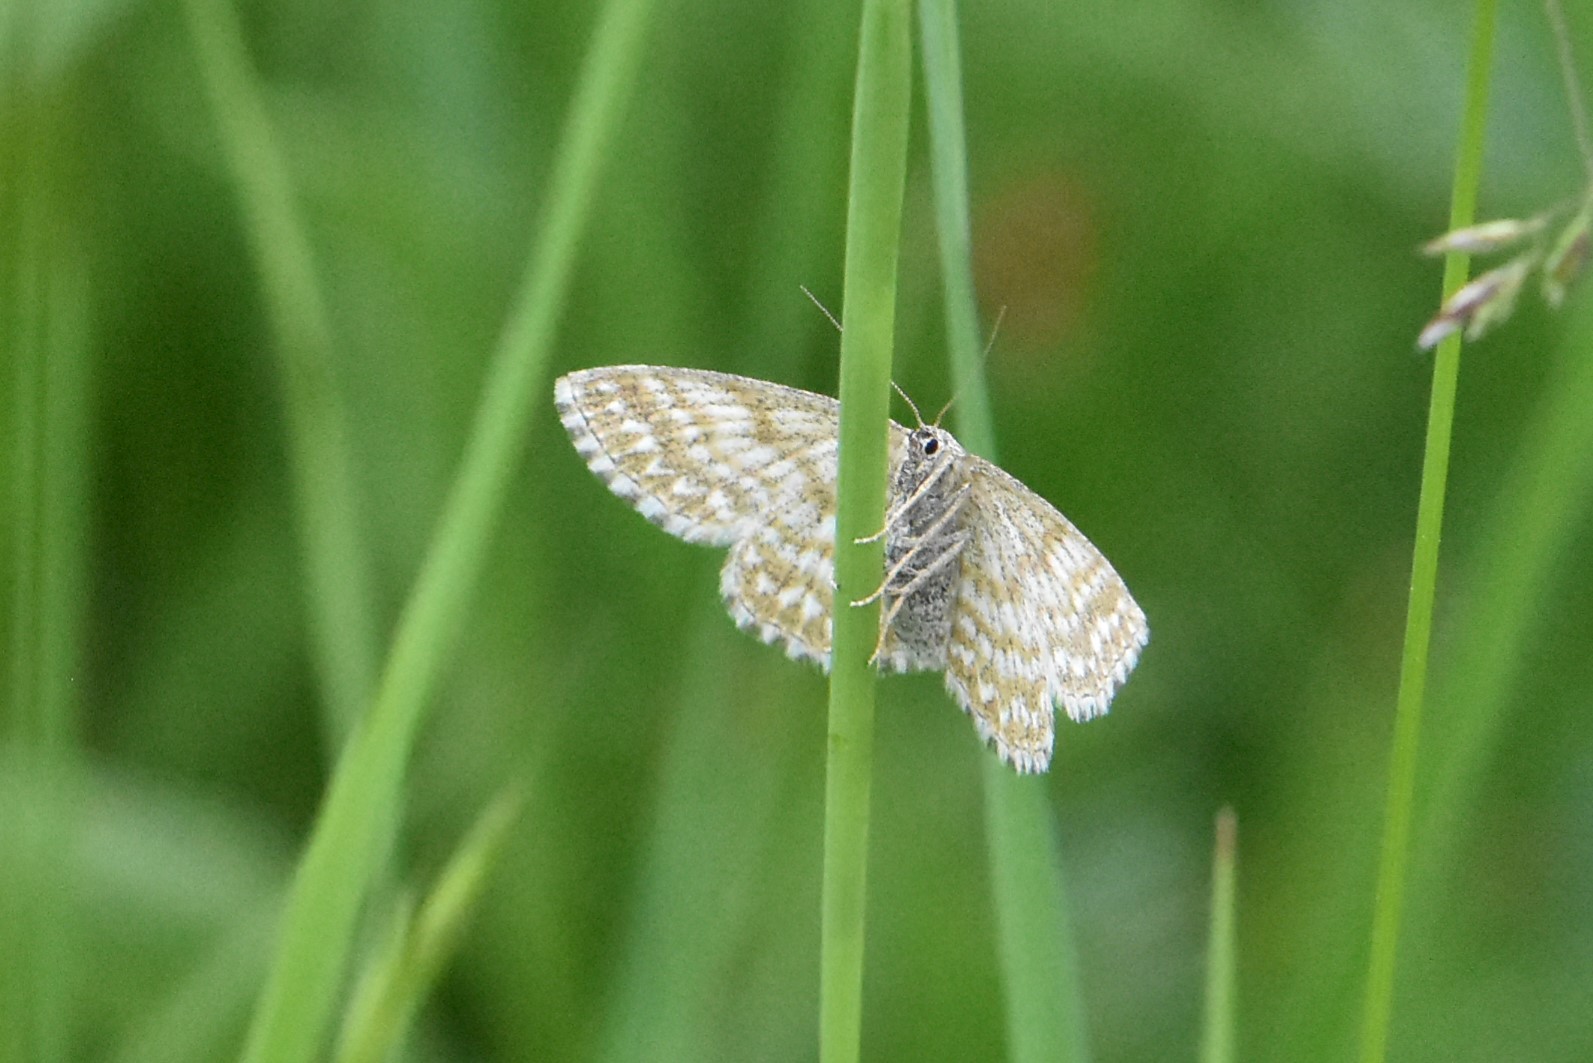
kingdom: Animalia
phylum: Arthropoda
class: Insecta
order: Lepidoptera
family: Geometridae
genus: Scopula
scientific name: Scopula immorata
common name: Lewes wave
